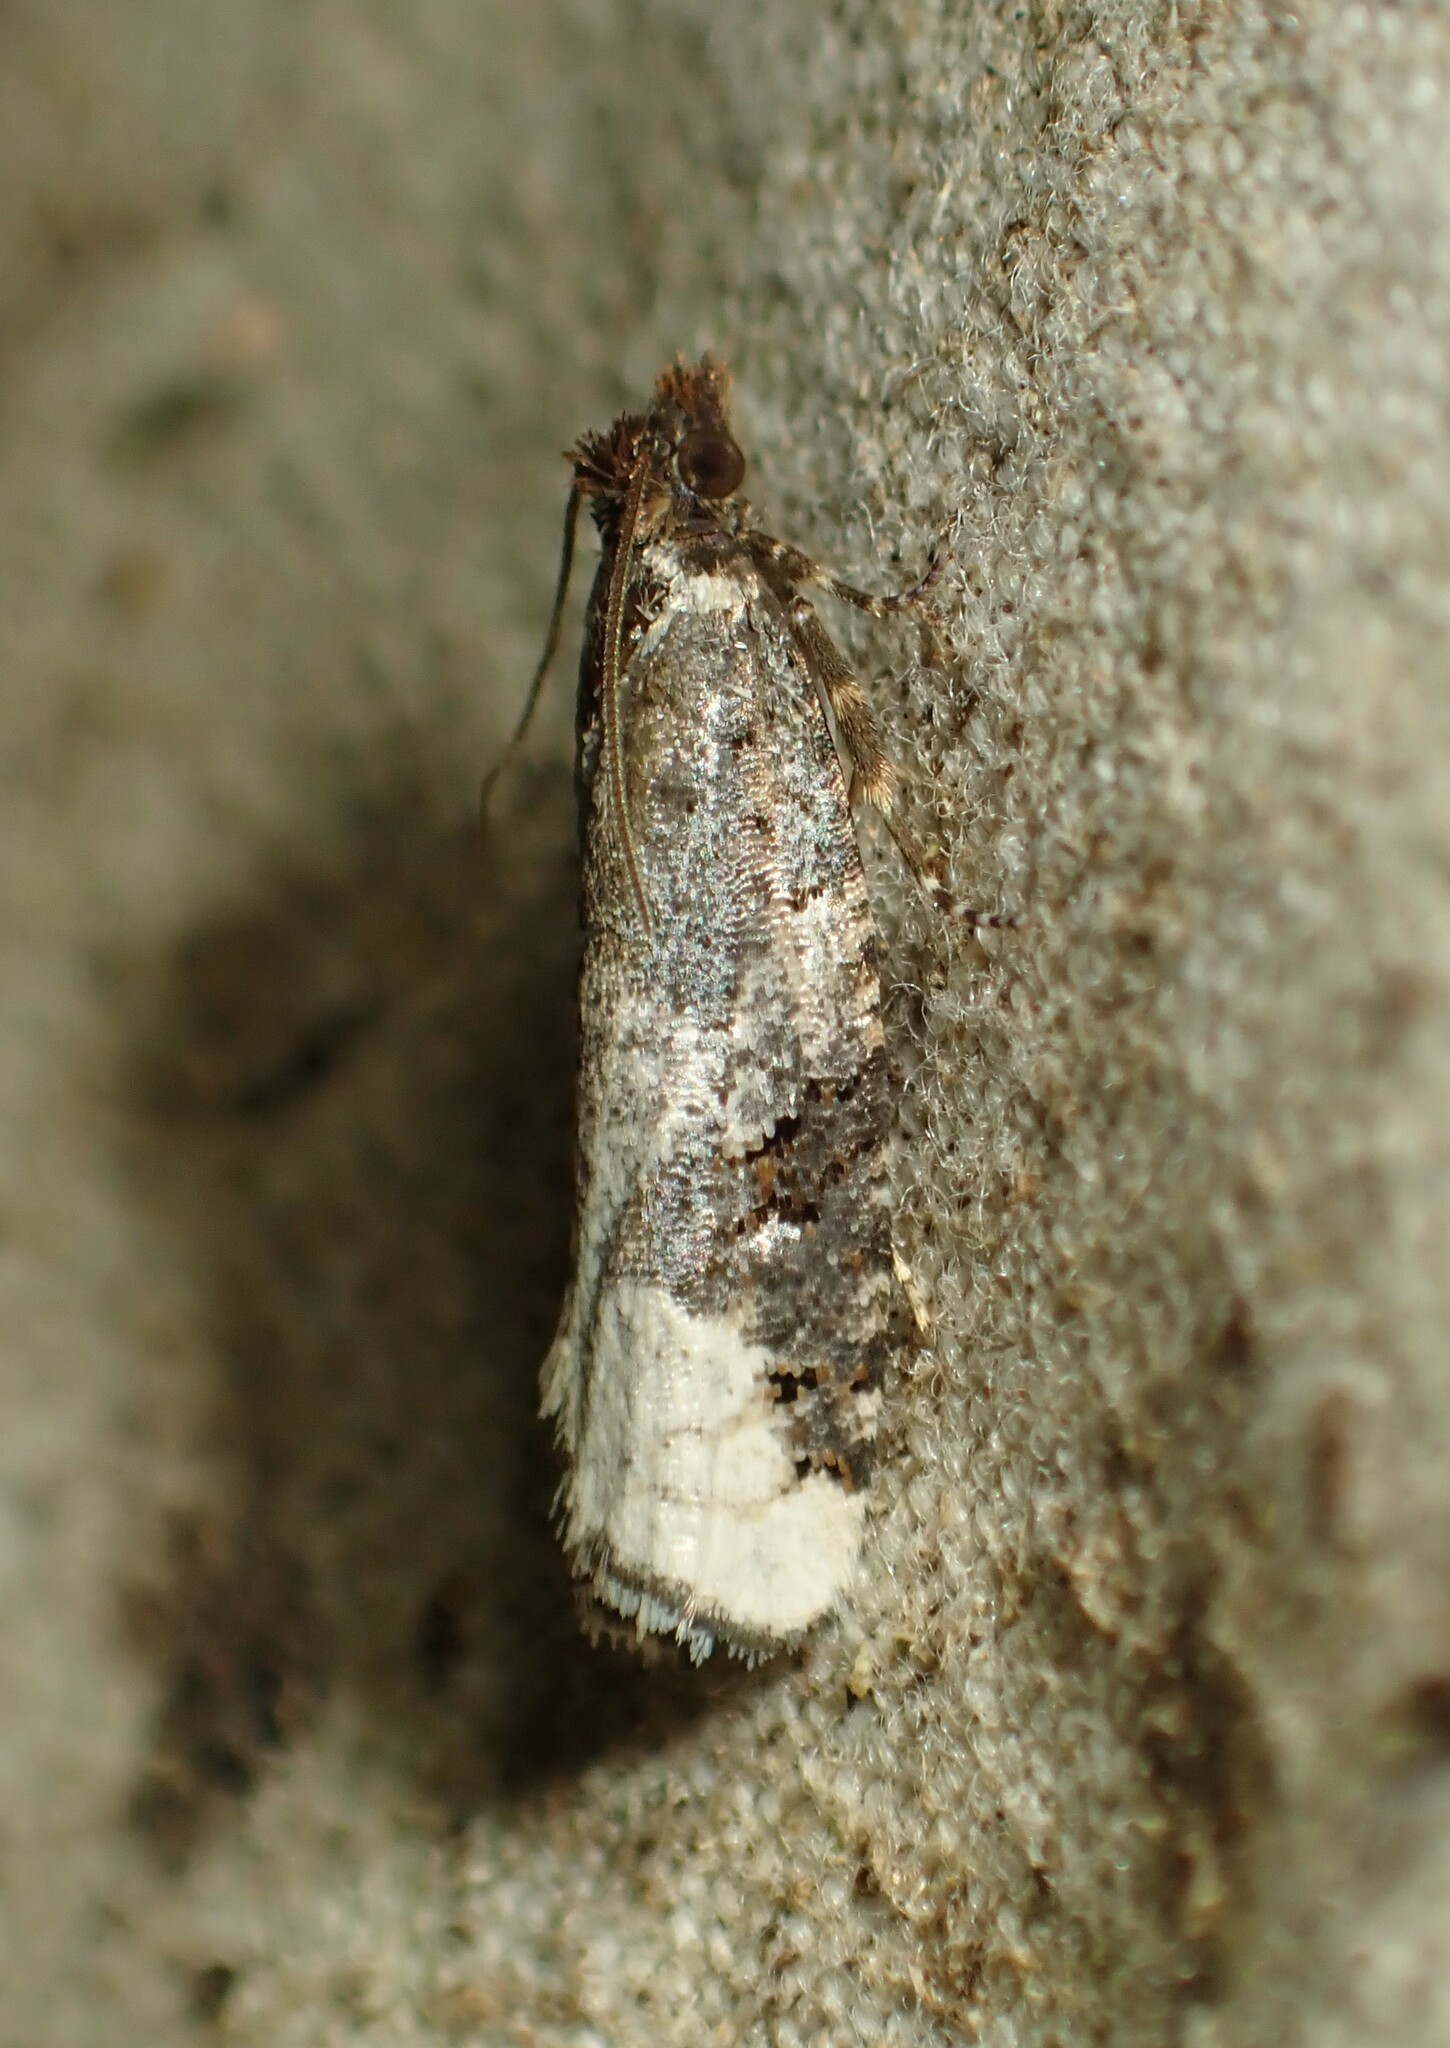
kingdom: Animalia
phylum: Arthropoda
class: Insecta
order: Lepidoptera
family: Tortricidae
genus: Epinotia
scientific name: Epinotia lomonana
